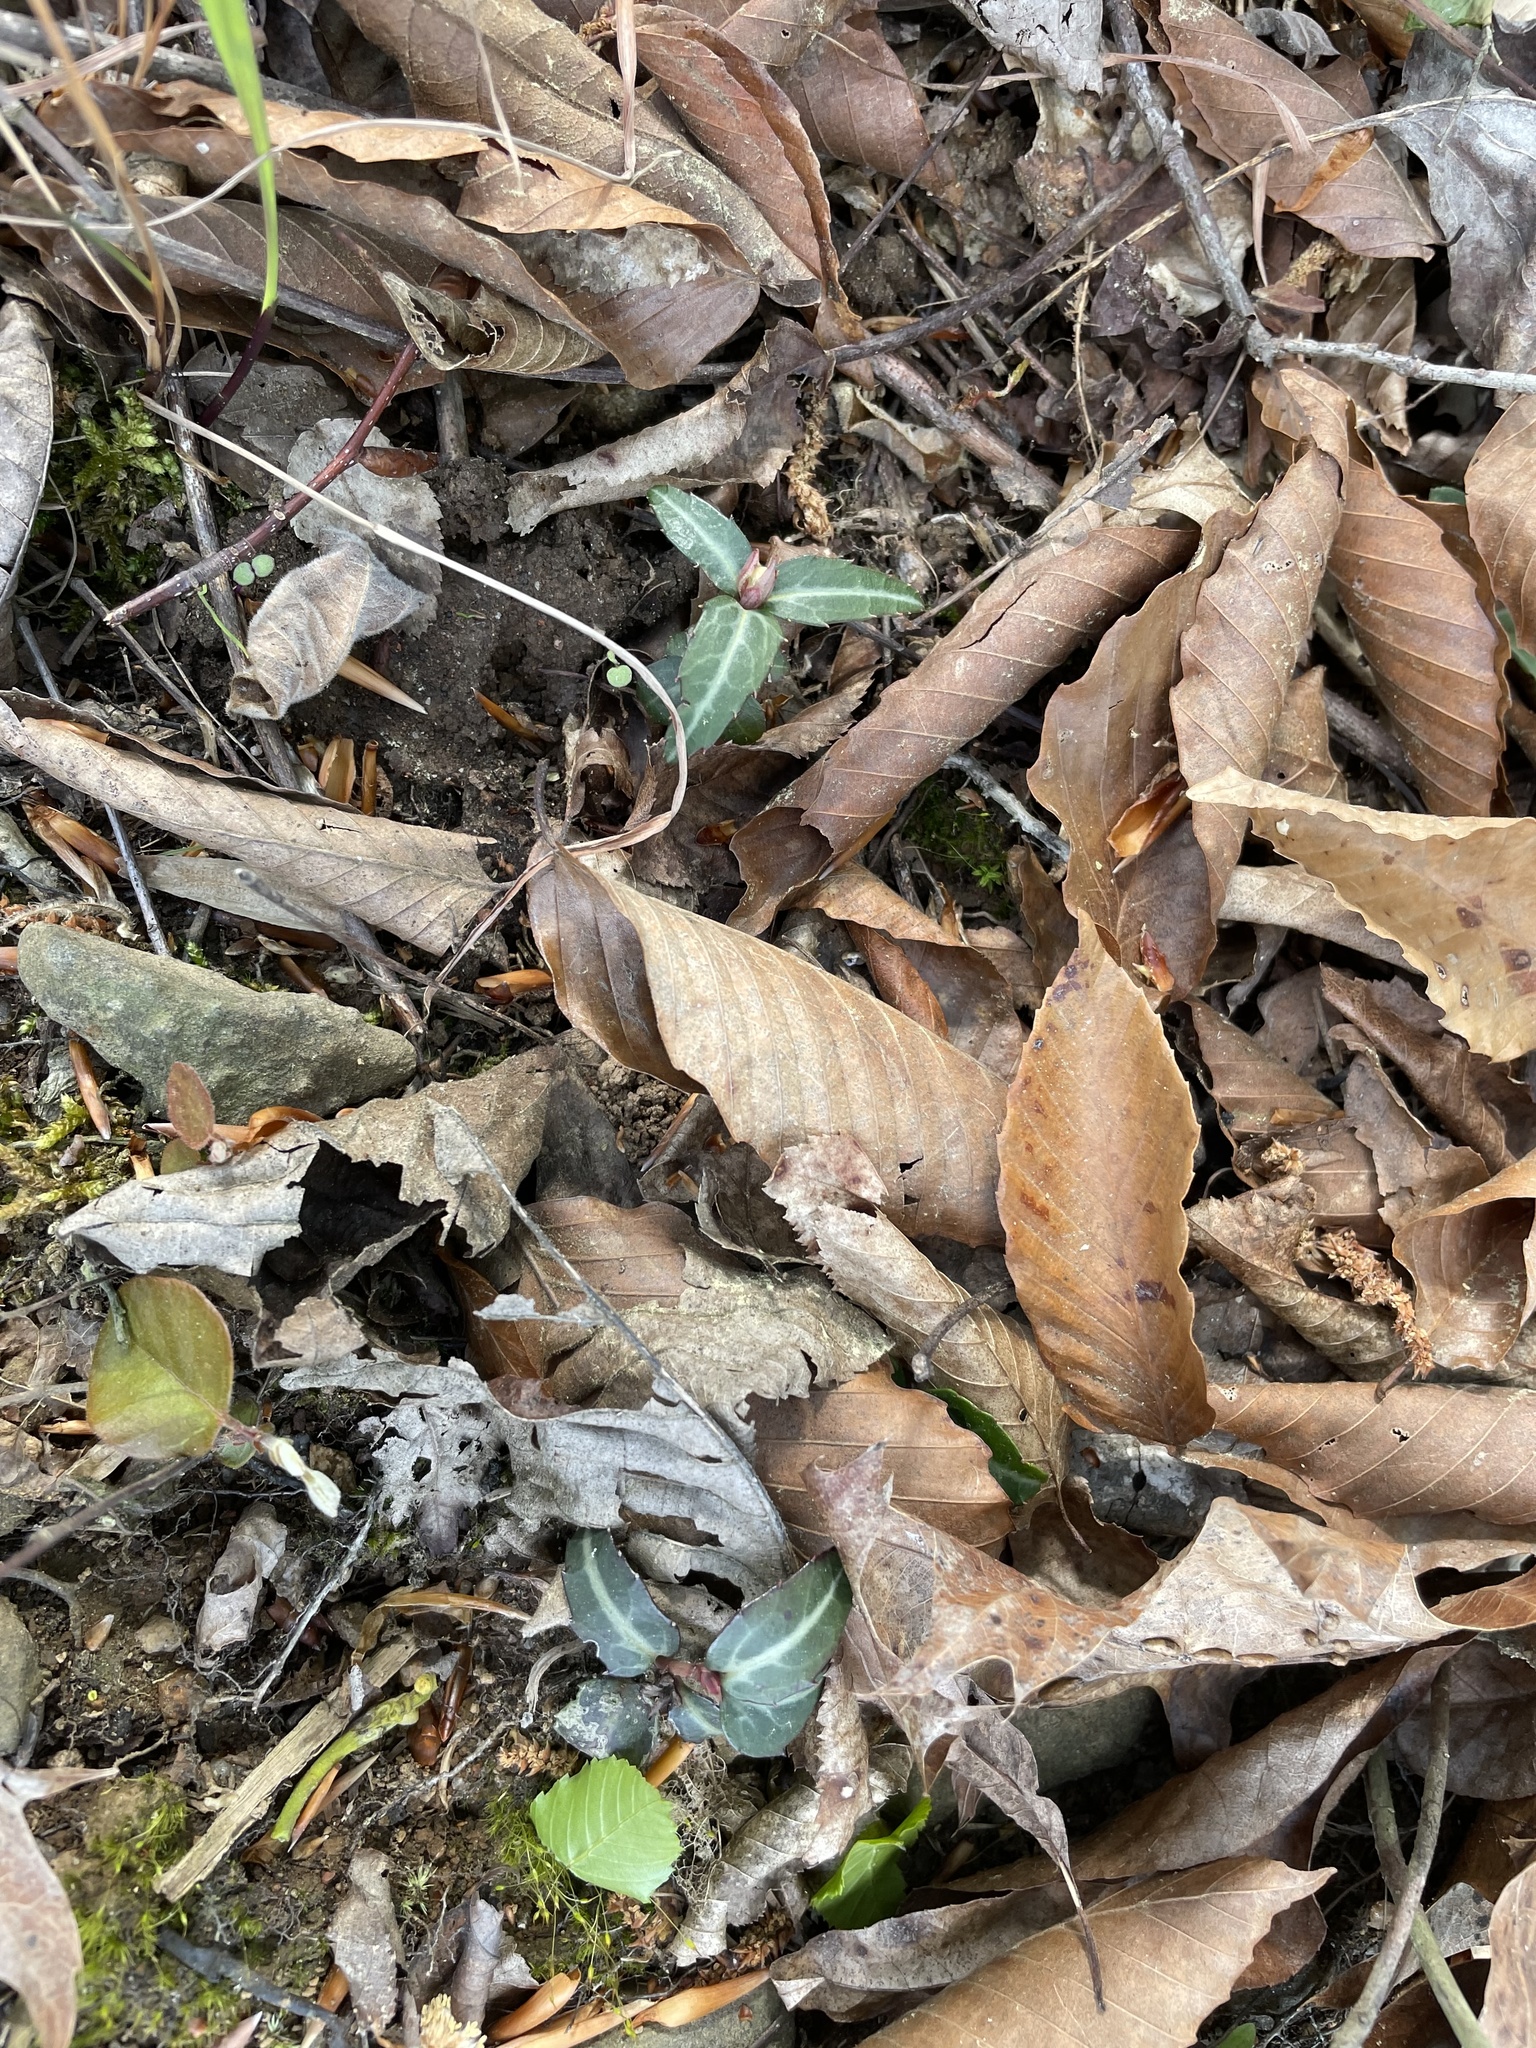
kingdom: Plantae
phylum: Tracheophyta
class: Magnoliopsida
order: Ericales
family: Ericaceae
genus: Chimaphila
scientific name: Chimaphila maculata
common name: Spotted pipsissewa
